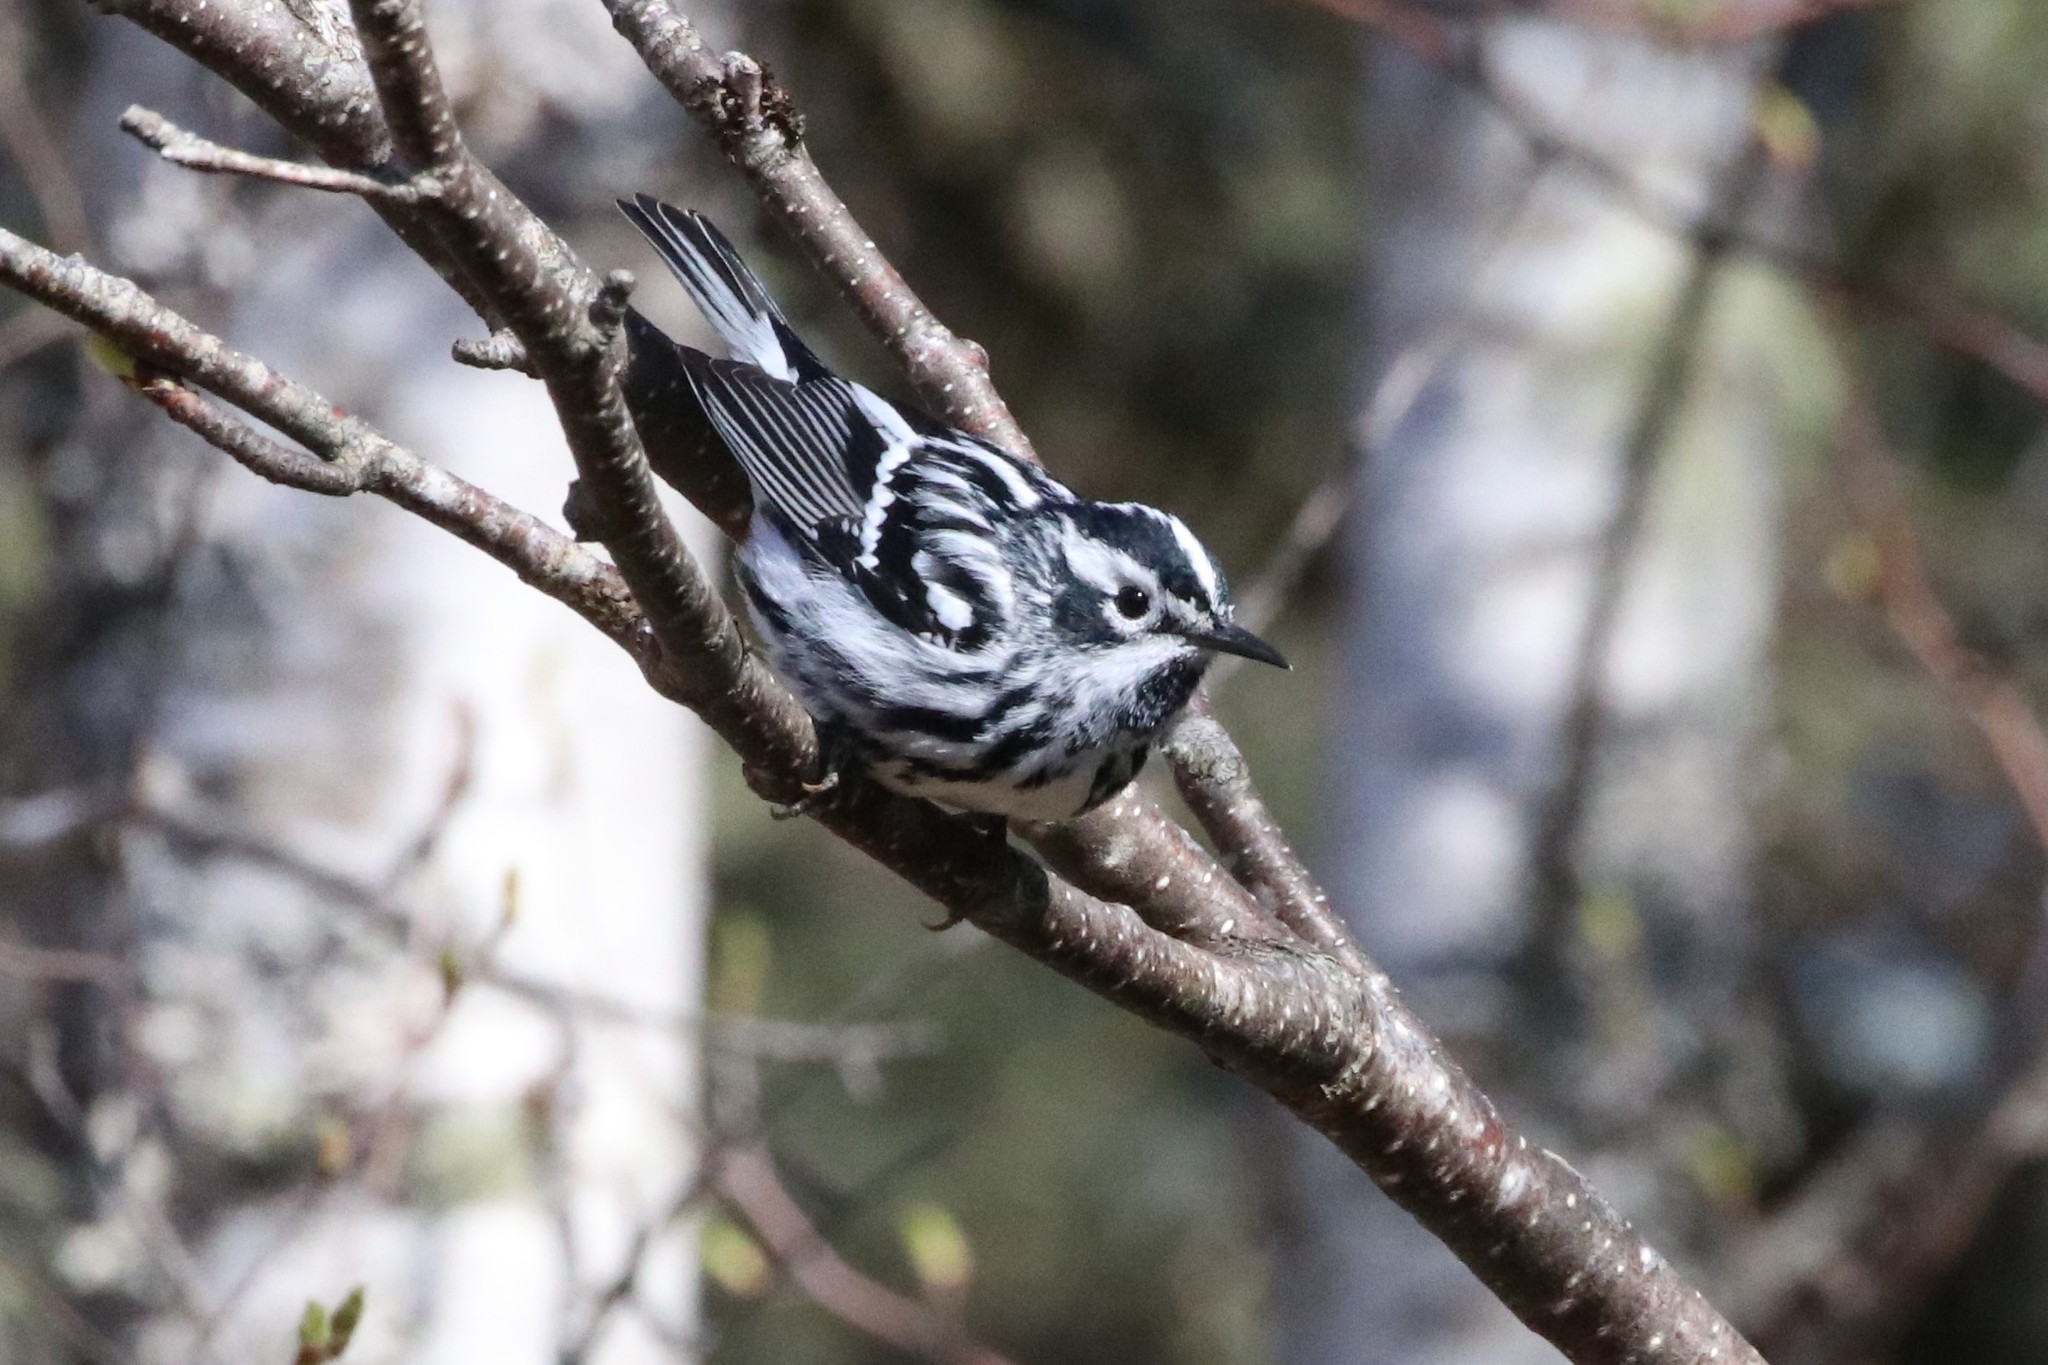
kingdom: Animalia
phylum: Chordata
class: Aves
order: Passeriformes
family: Parulidae
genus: Mniotilta
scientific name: Mniotilta varia
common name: Black-and-white warbler
